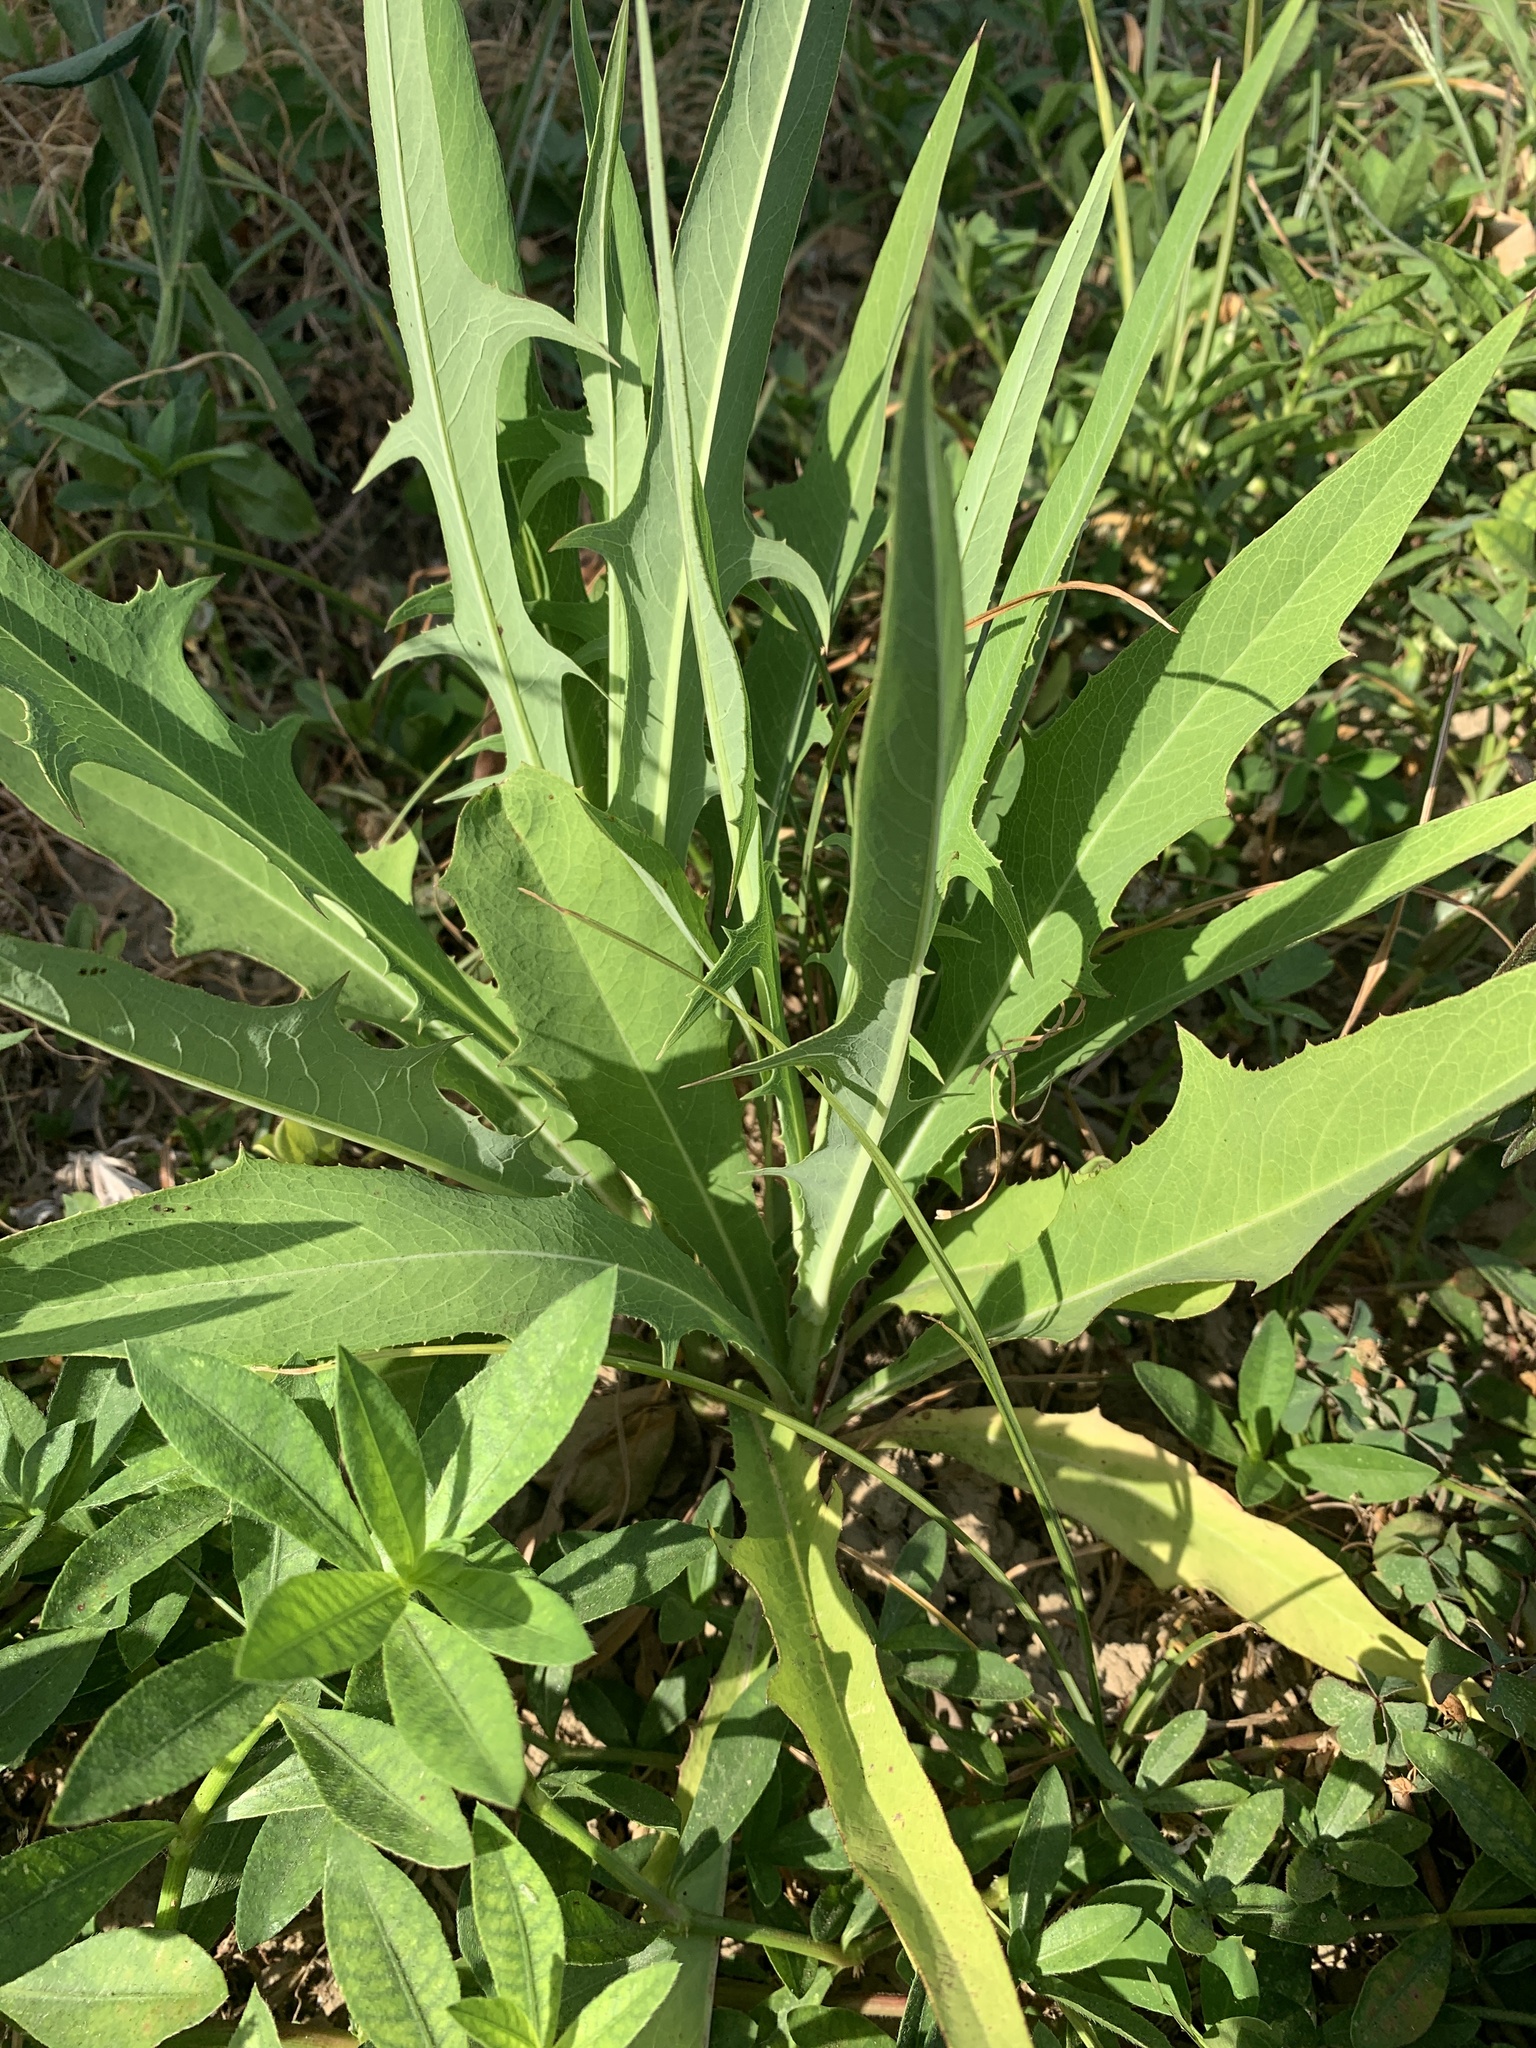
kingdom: Plantae
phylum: Tracheophyta
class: Magnoliopsida
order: Asterales
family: Asteraceae
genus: Lactuca
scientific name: Lactuca indica
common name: Wild lettuce
